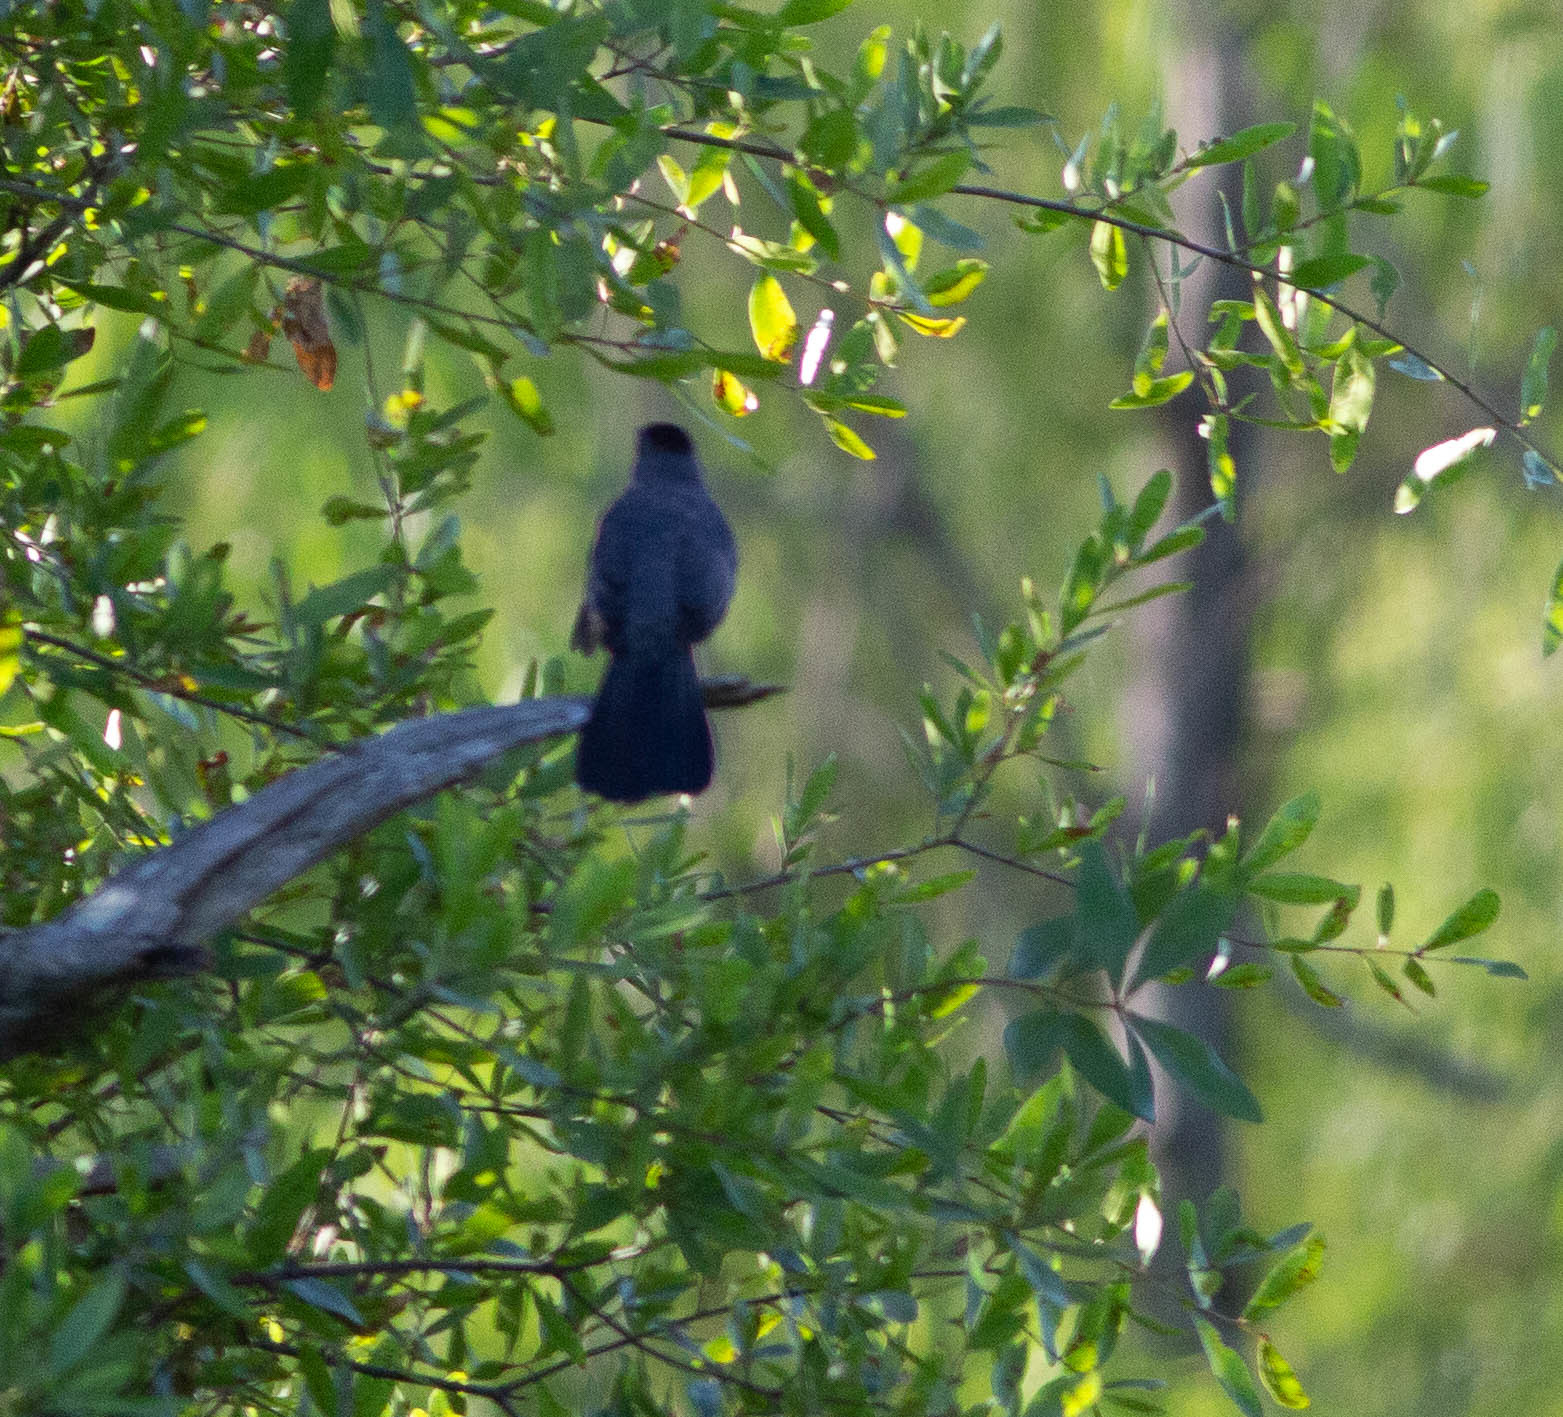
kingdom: Animalia
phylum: Chordata
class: Aves
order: Passeriformes
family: Mimidae
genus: Dumetella
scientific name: Dumetella carolinensis
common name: Gray catbird
